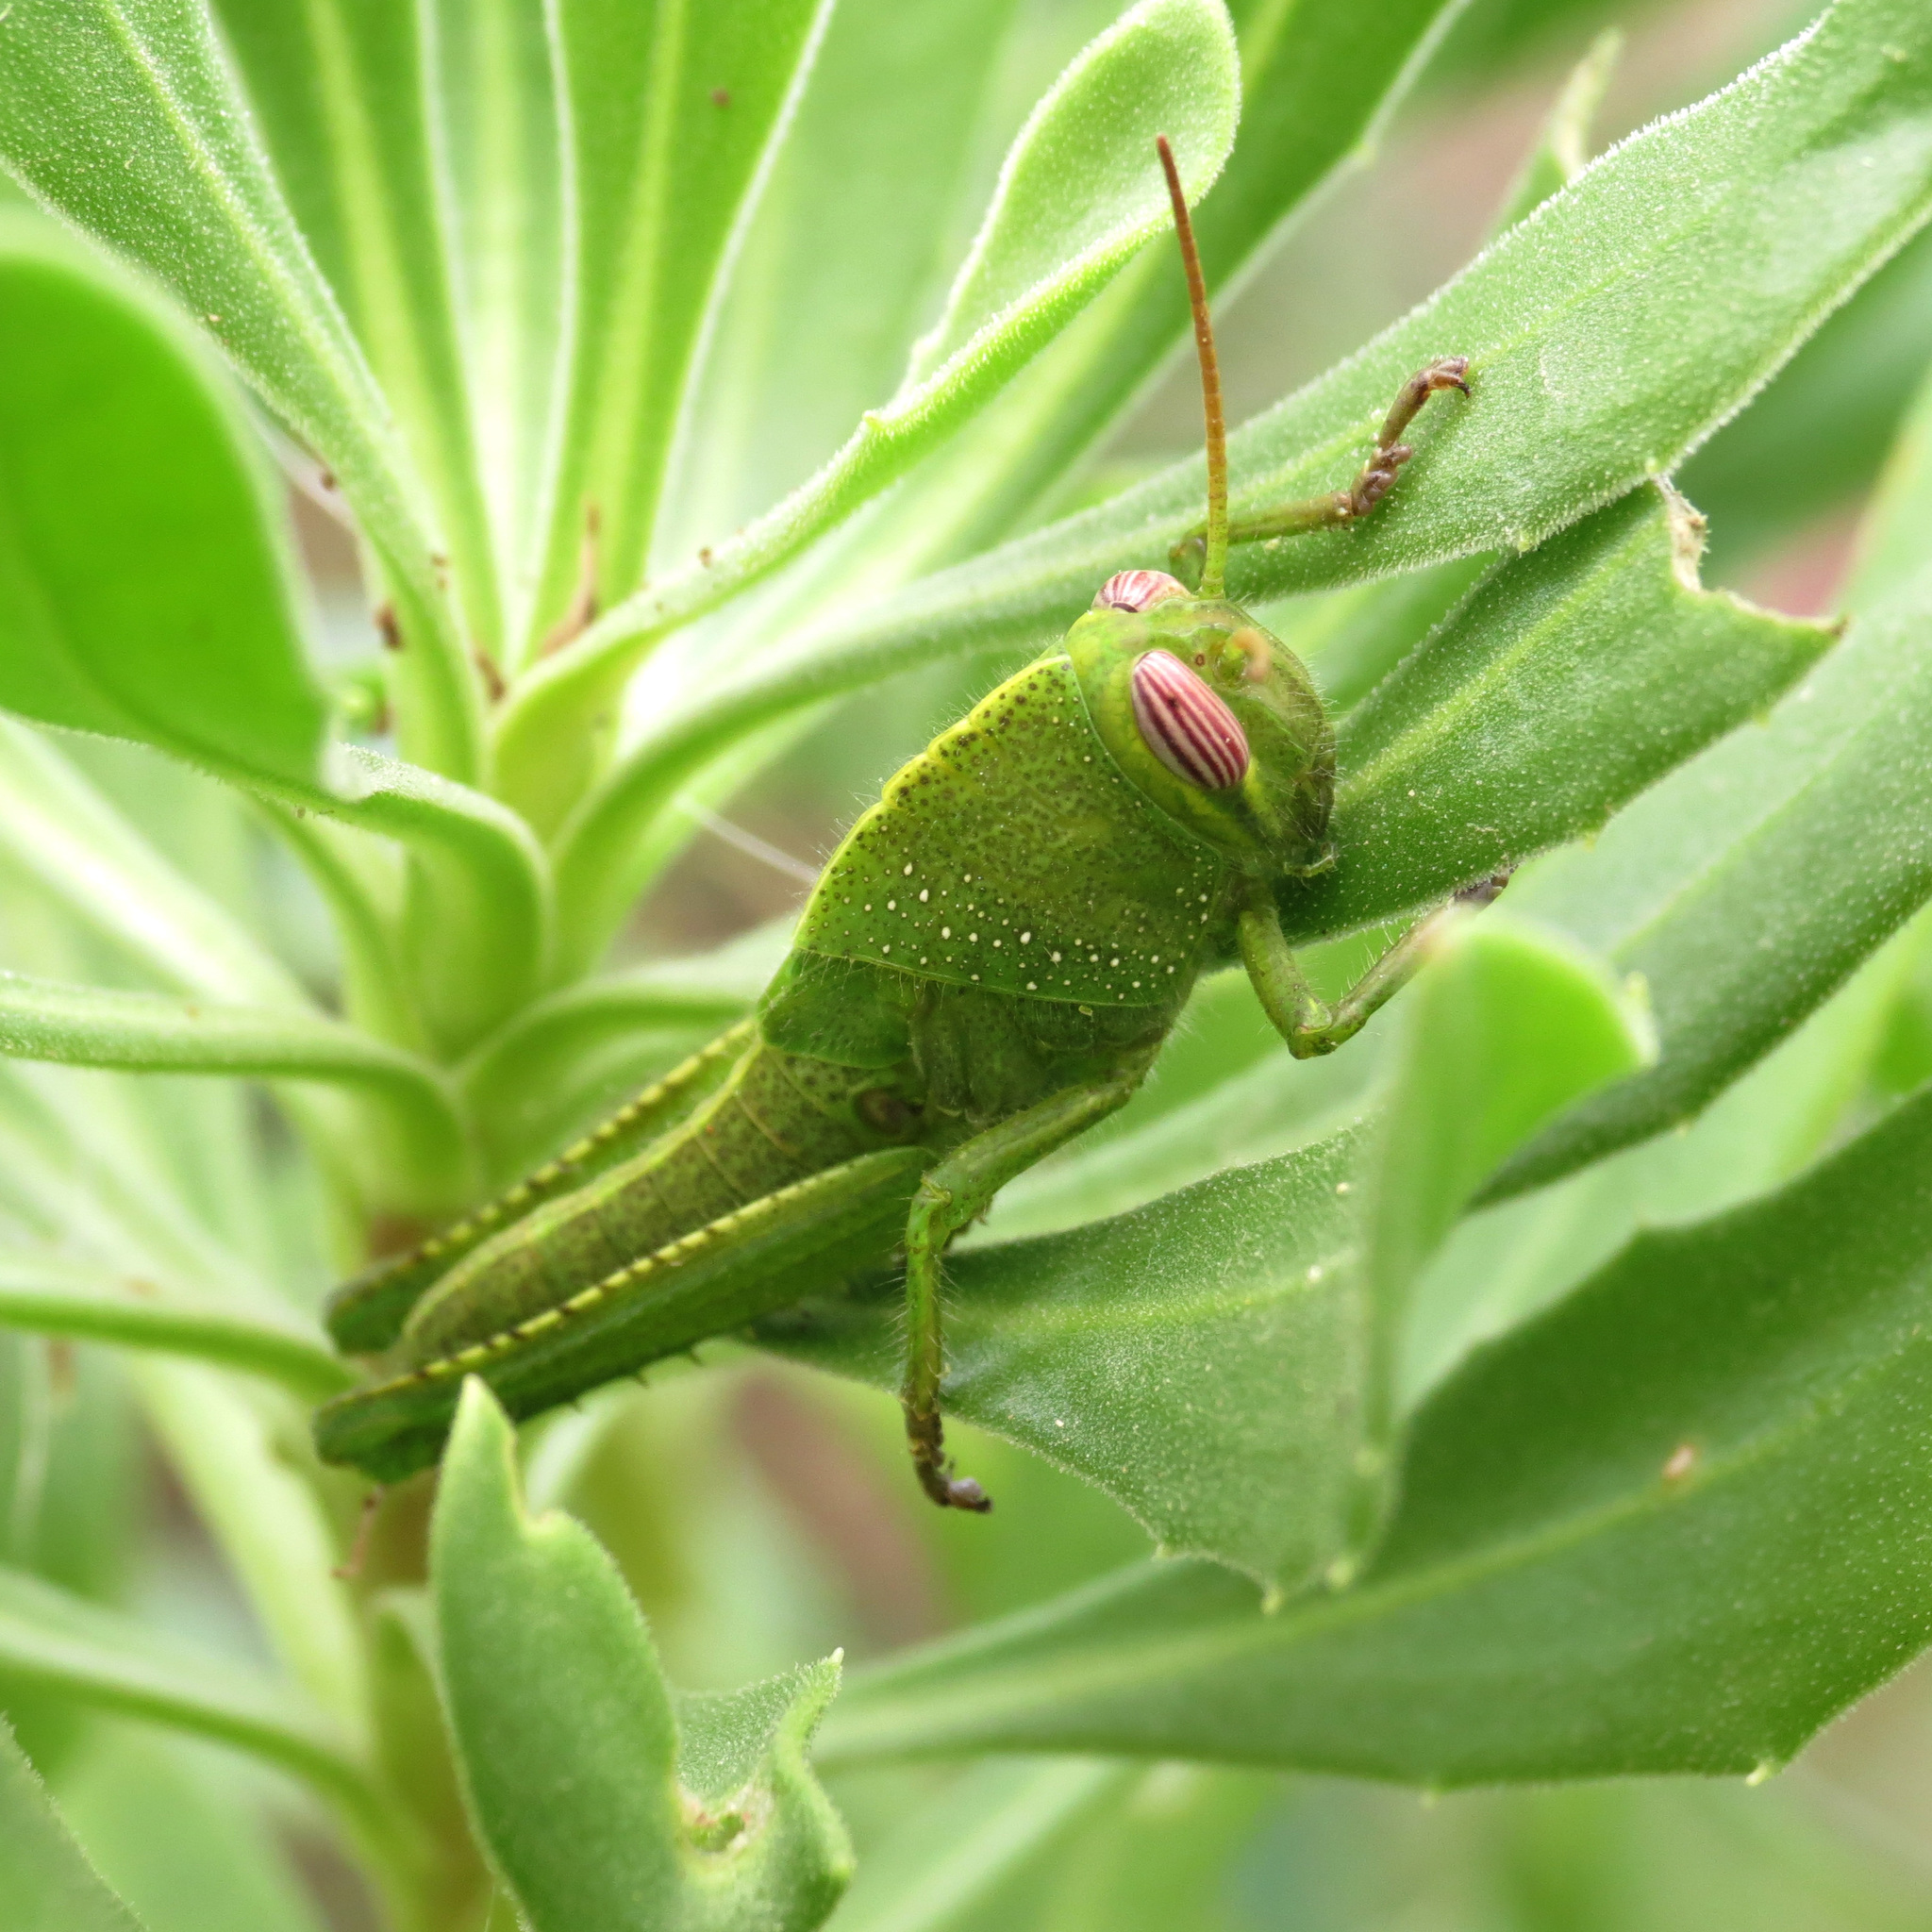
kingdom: Animalia
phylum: Arthropoda
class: Insecta
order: Orthoptera
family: Acrididae
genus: Anacridium
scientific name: Anacridium aegyptium
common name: Egyptian grasshopper
